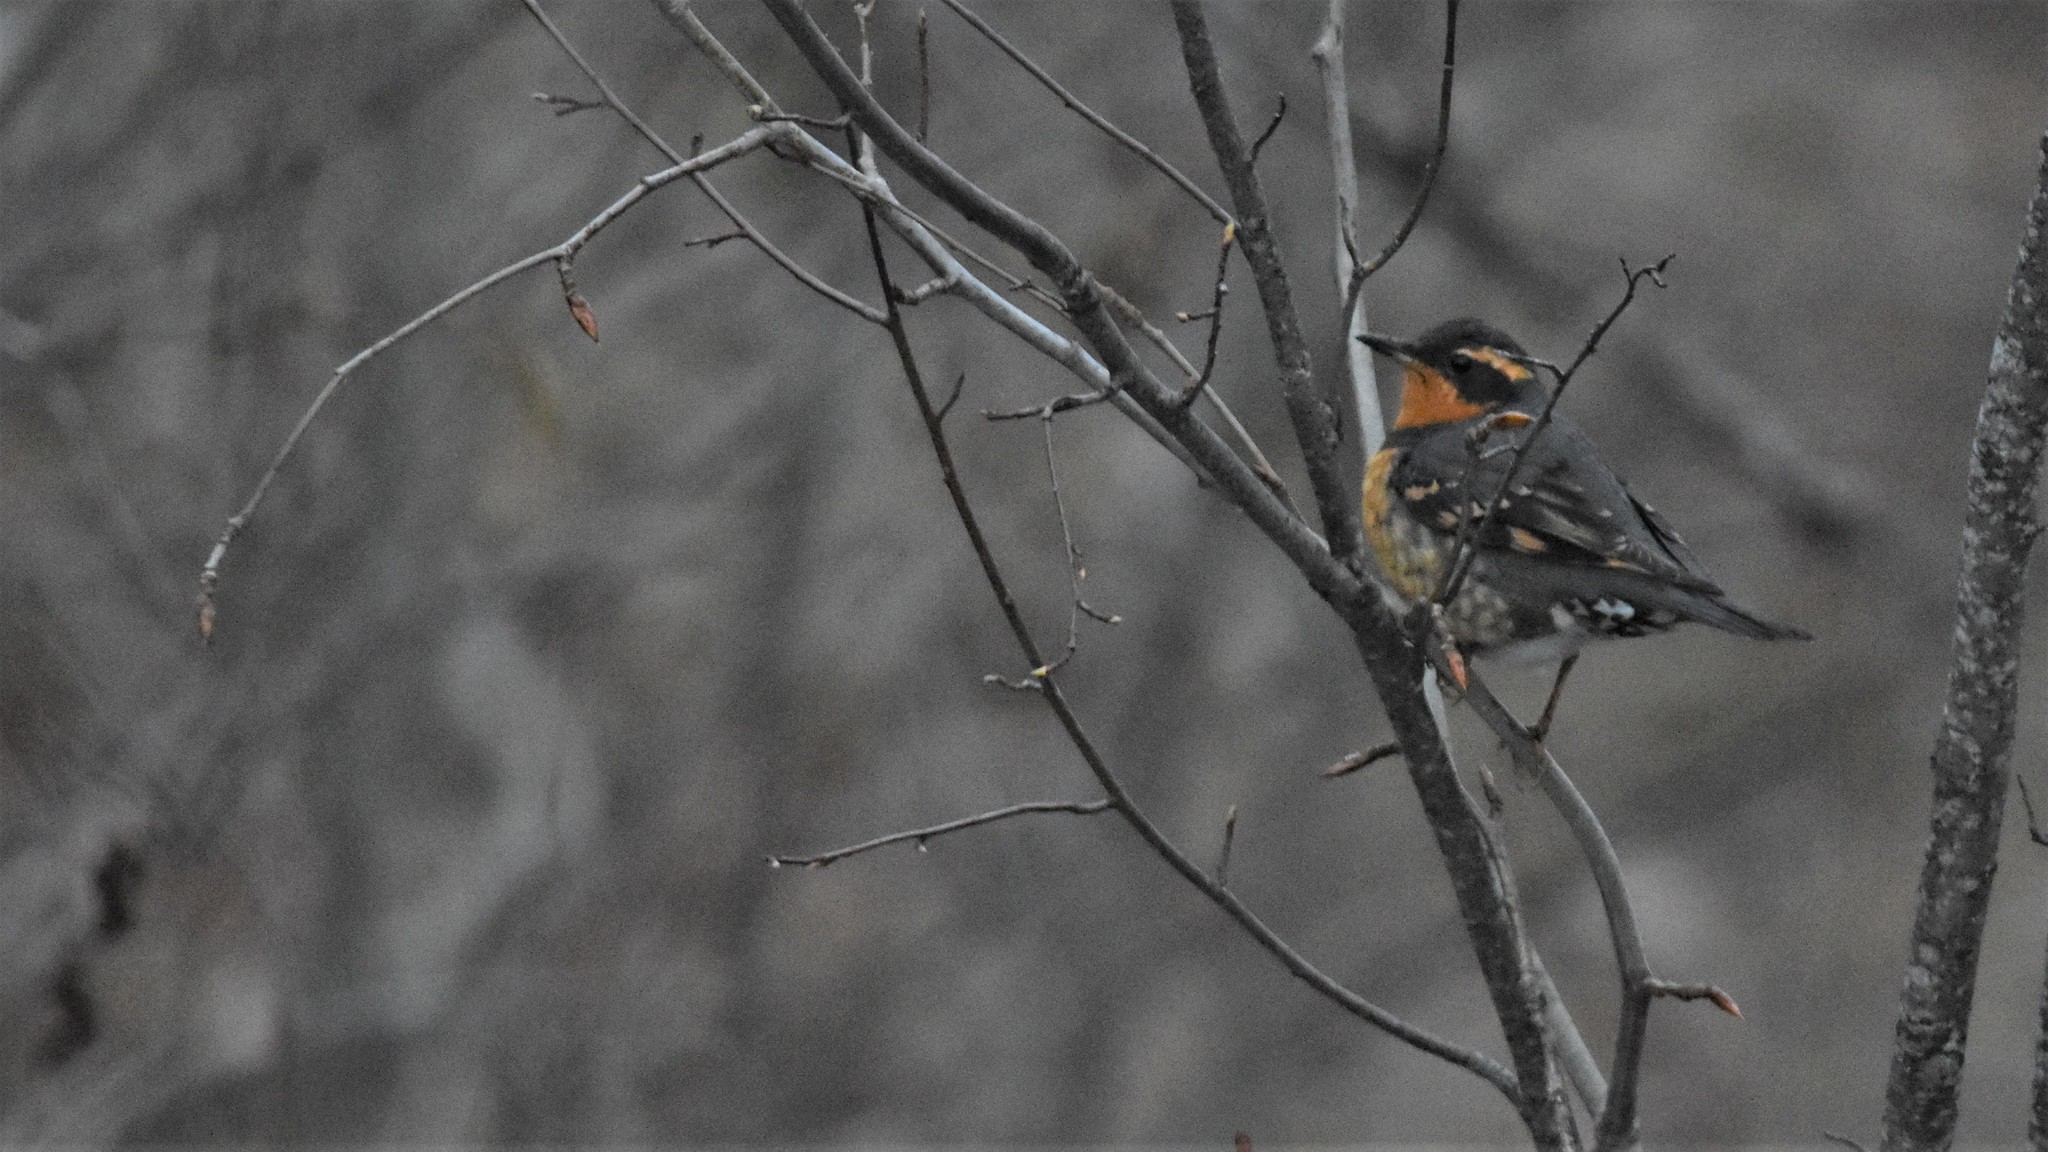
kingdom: Animalia
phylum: Chordata
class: Aves
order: Passeriformes
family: Turdidae
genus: Ixoreus
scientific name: Ixoreus naevius
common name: Varied thrush
